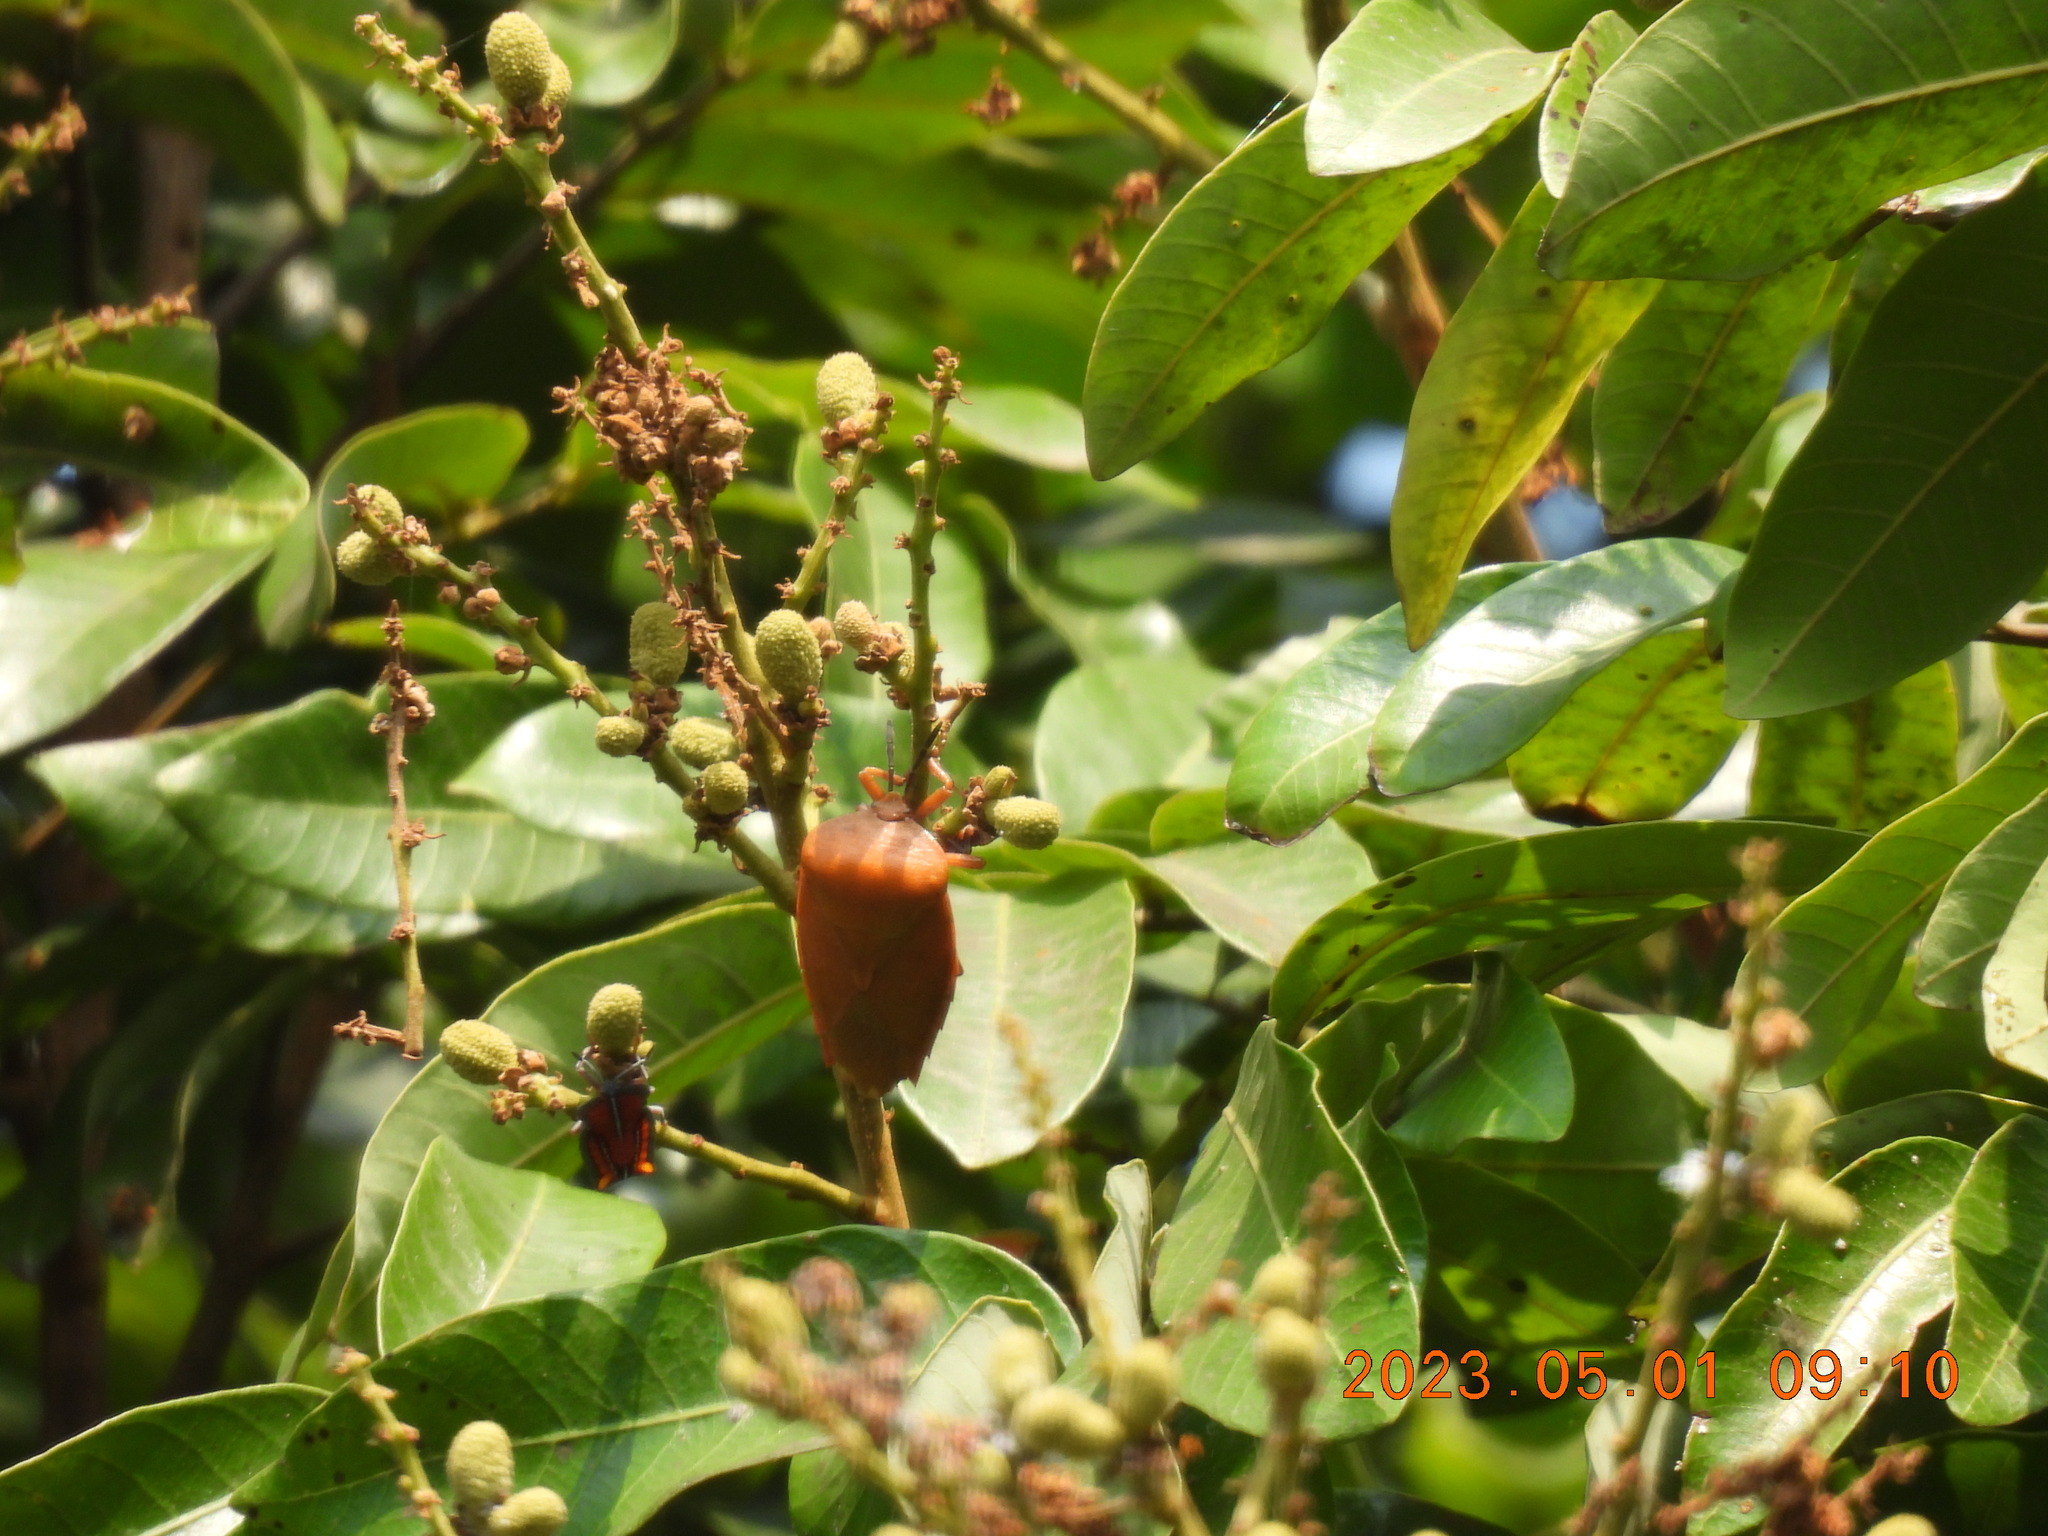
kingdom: Animalia
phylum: Arthropoda
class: Insecta
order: Hemiptera
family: Tessaratomidae
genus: Tessaratoma
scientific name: Tessaratoma papillosa
